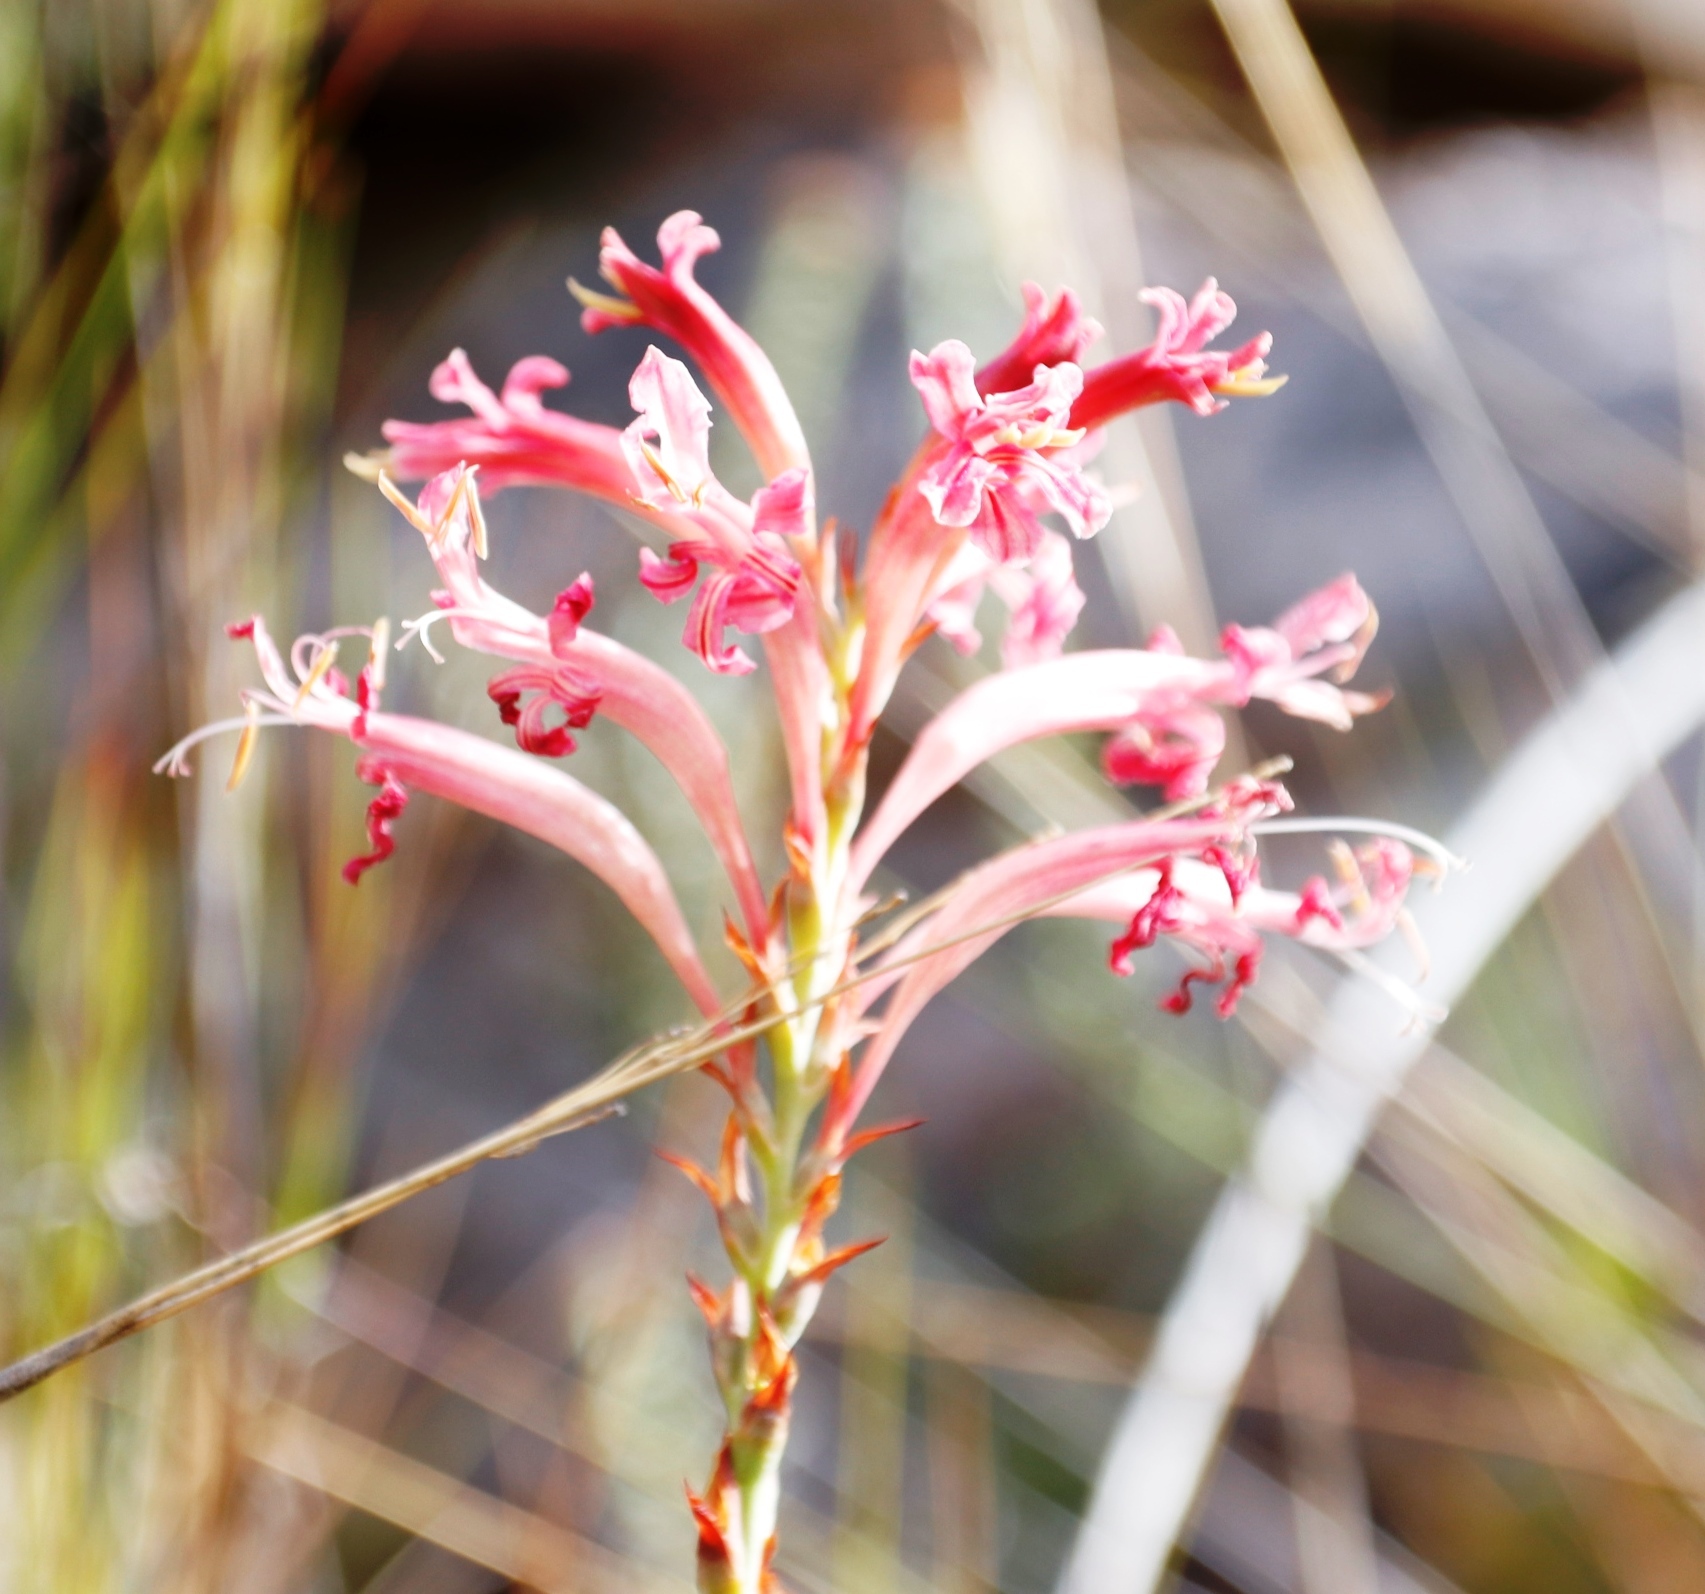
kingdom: Plantae
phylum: Tracheophyta
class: Liliopsida
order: Asparagales
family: Iridaceae
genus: Tritoniopsis
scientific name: Tritoniopsis antholyza
